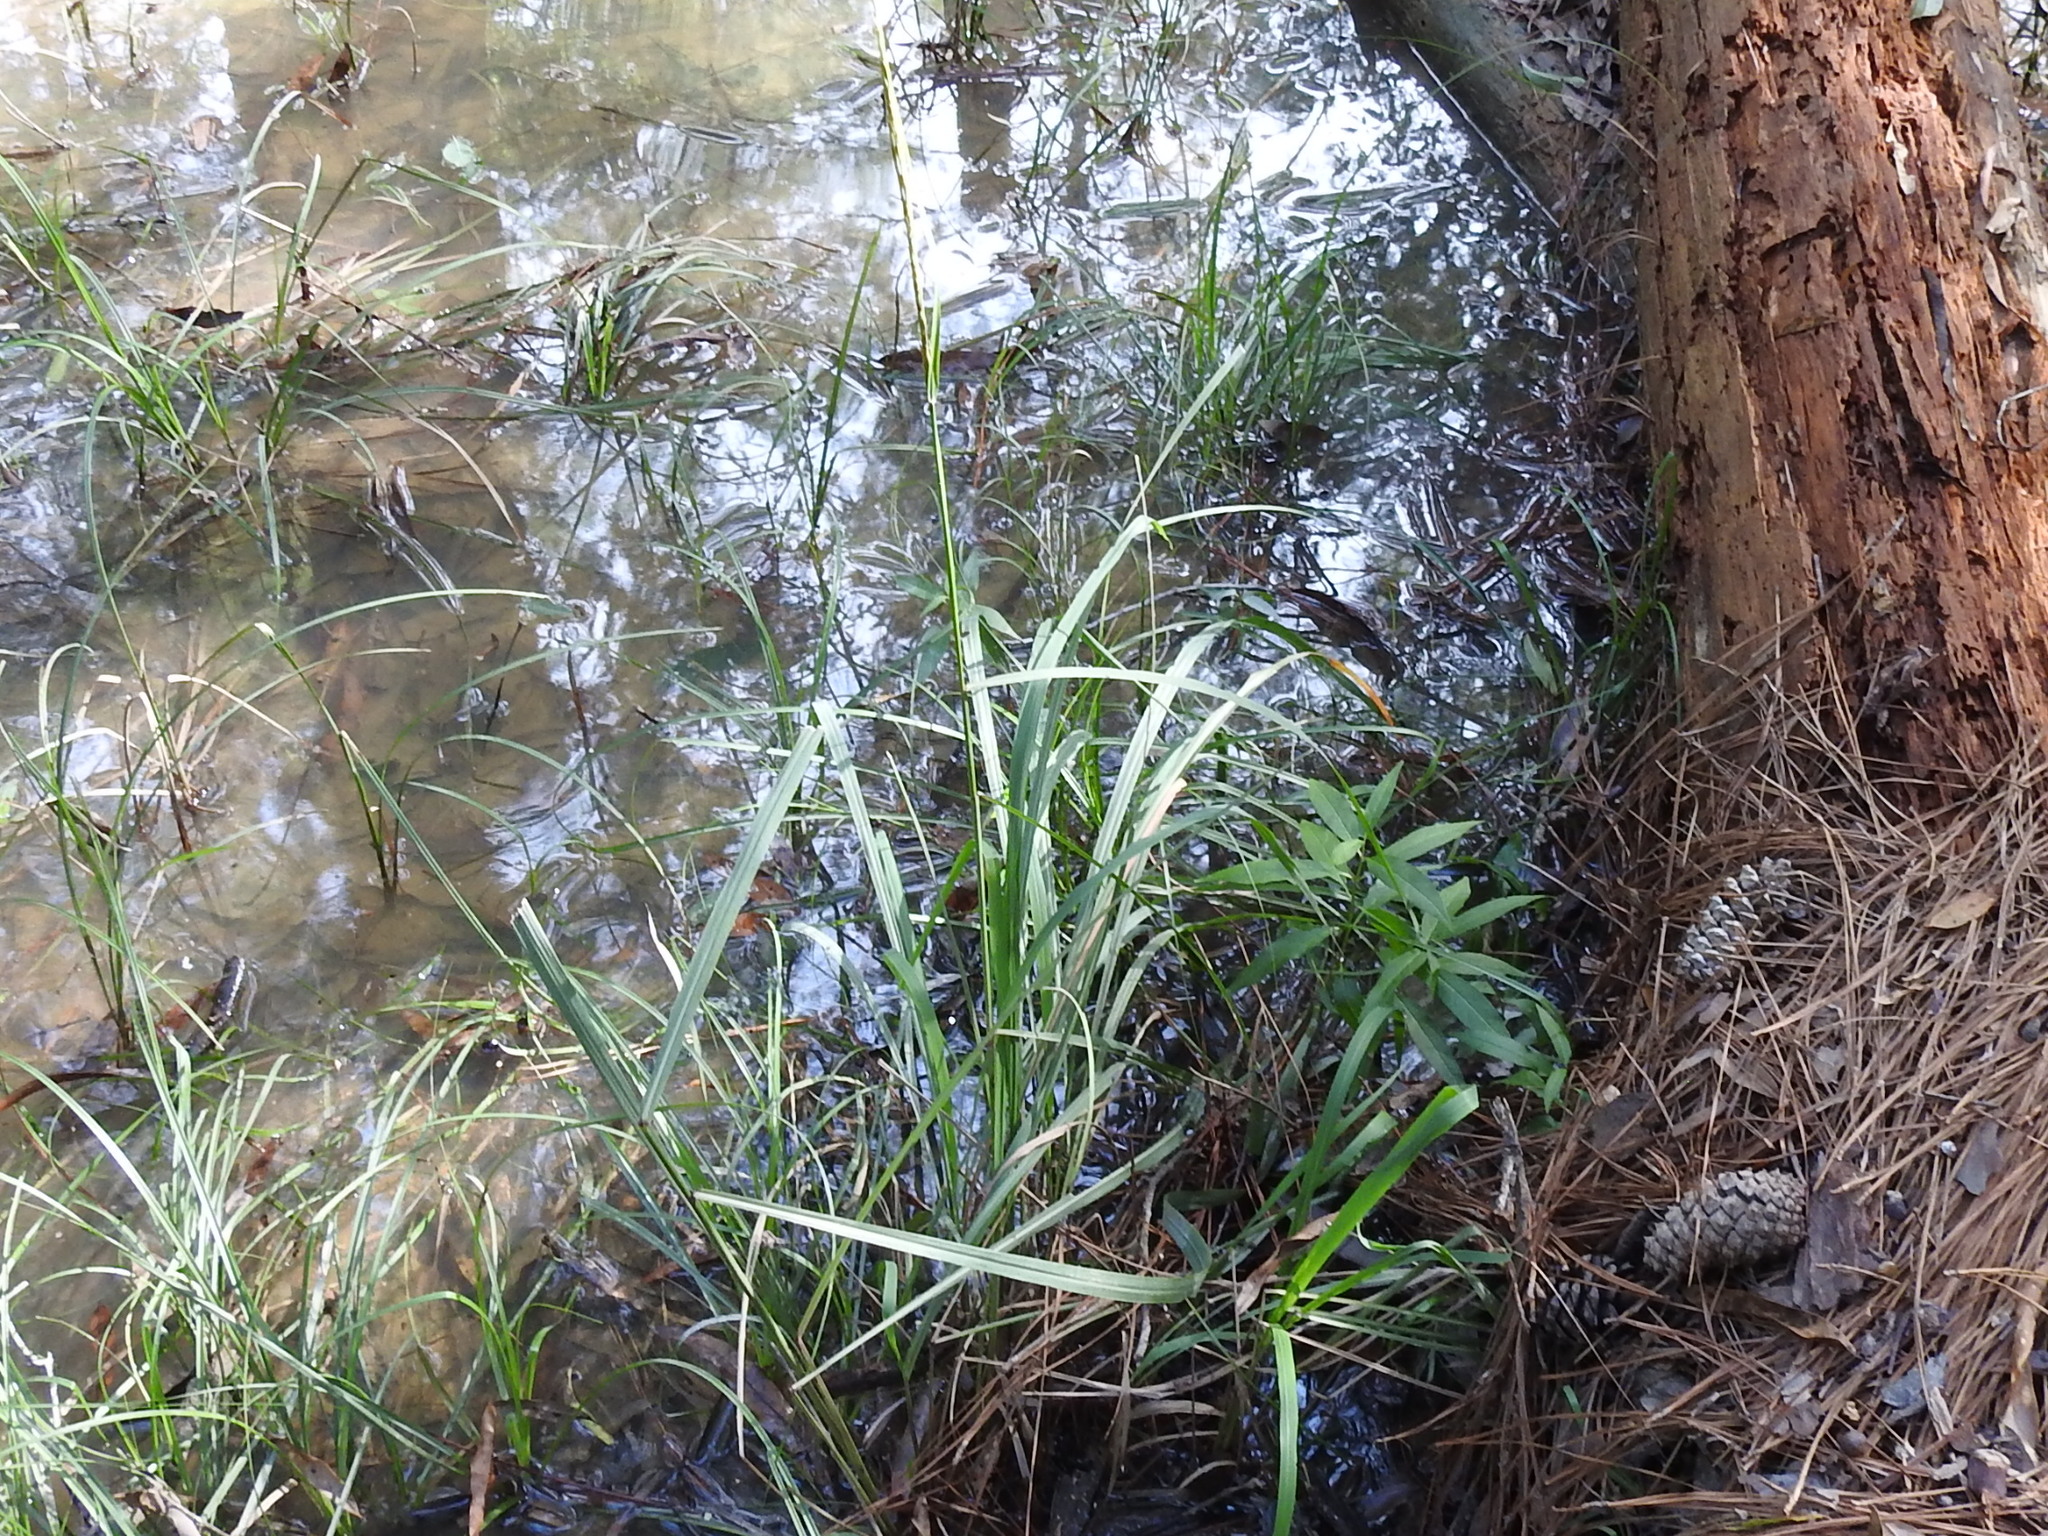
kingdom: Plantae
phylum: Tracheophyta
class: Liliopsida
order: Poales
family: Poaceae
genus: Erianthus
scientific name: Erianthus strictus
